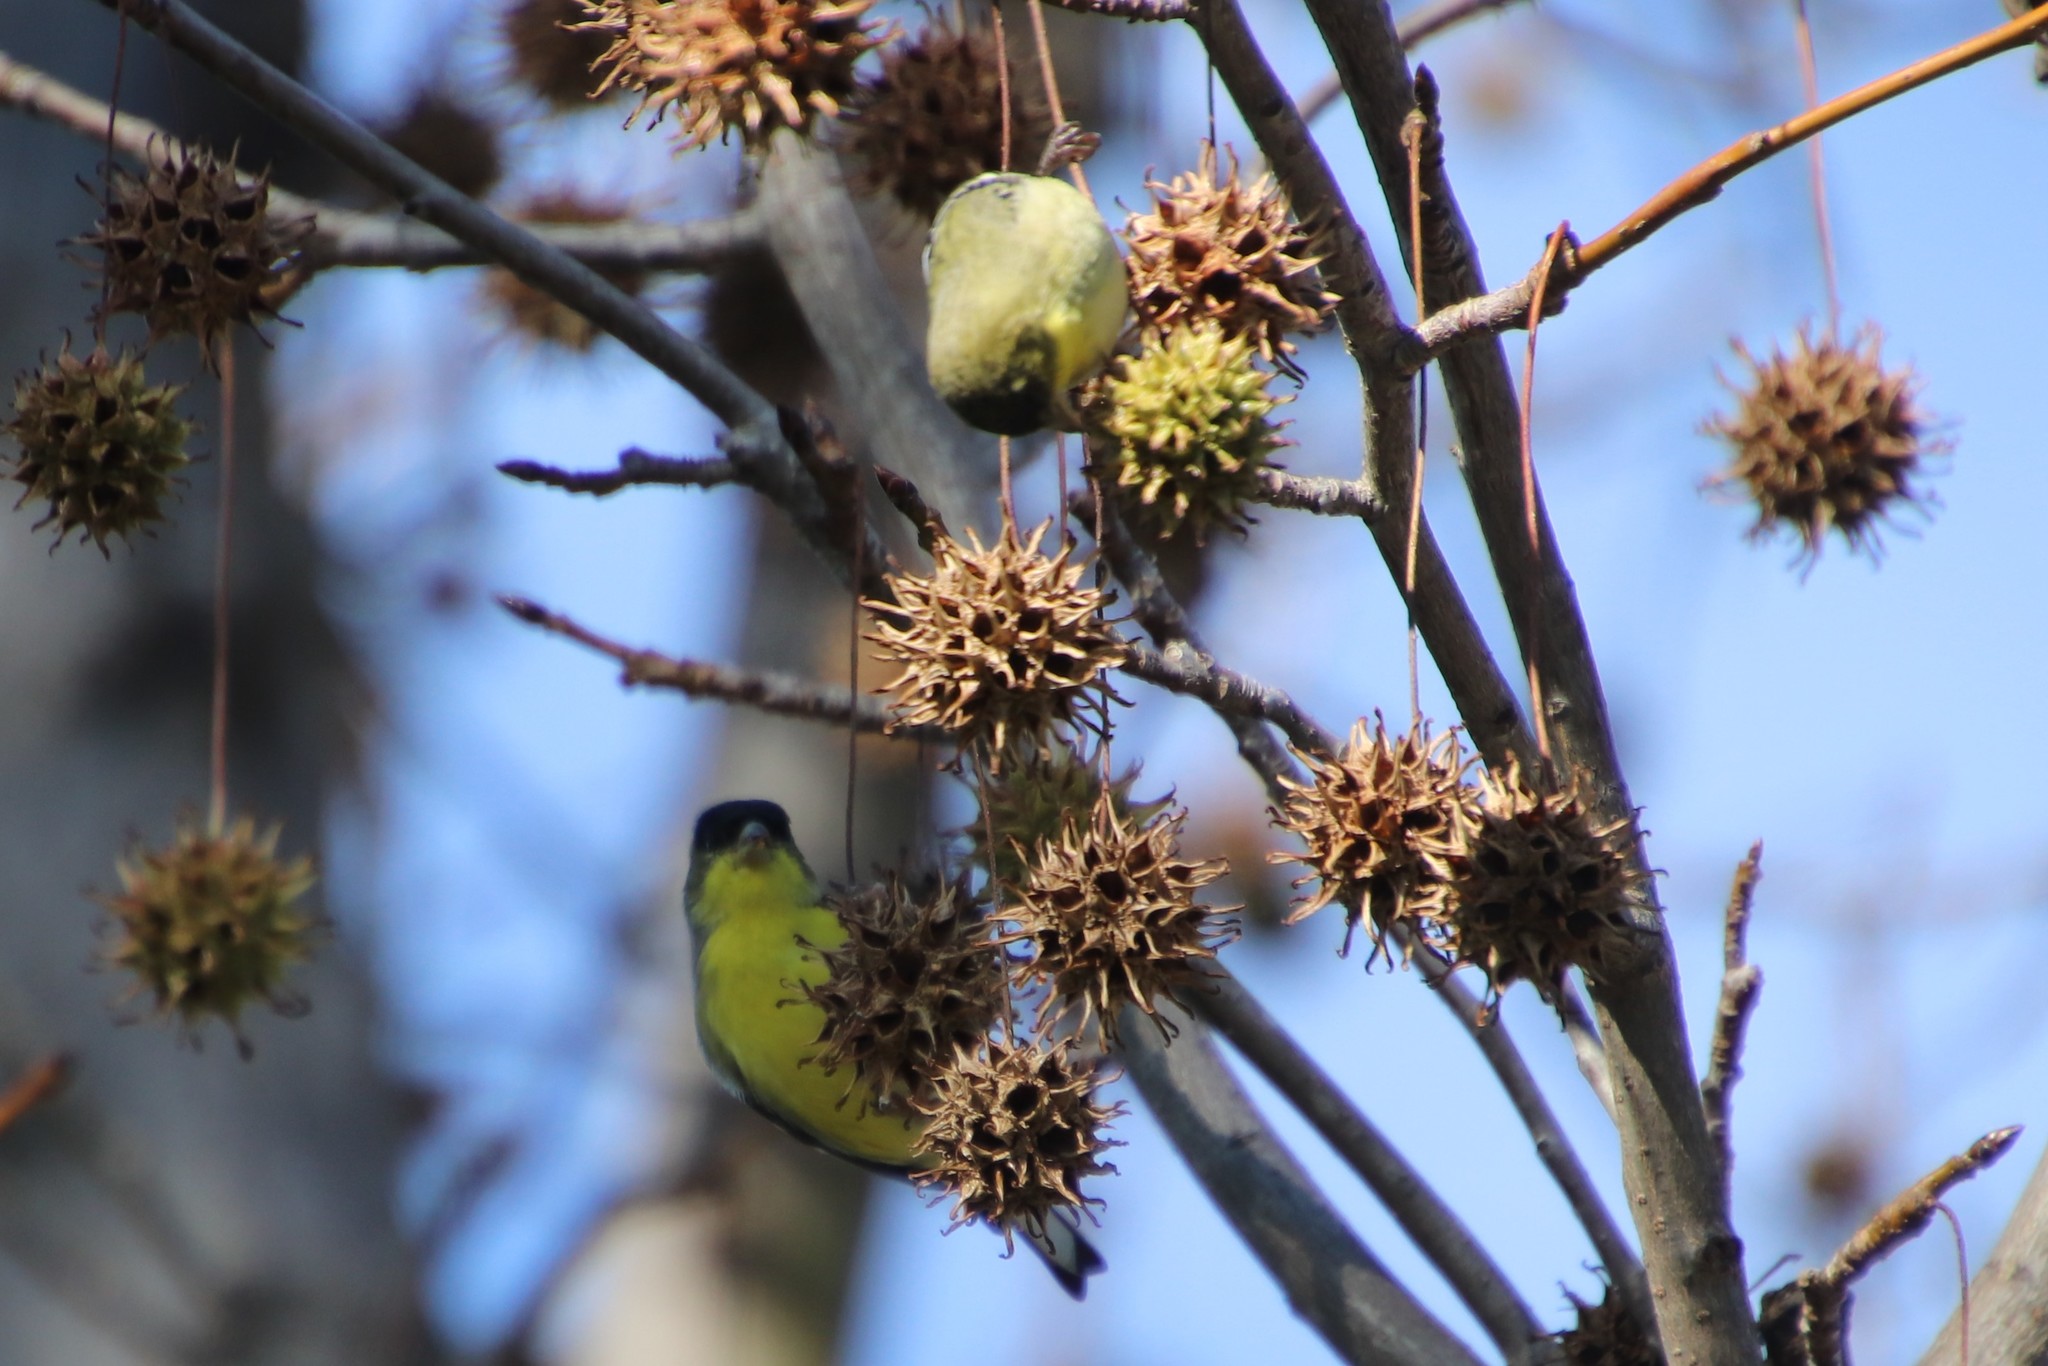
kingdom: Animalia
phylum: Chordata
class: Aves
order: Passeriformes
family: Fringillidae
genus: Spinus
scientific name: Spinus psaltria
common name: Lesser goldfinch
